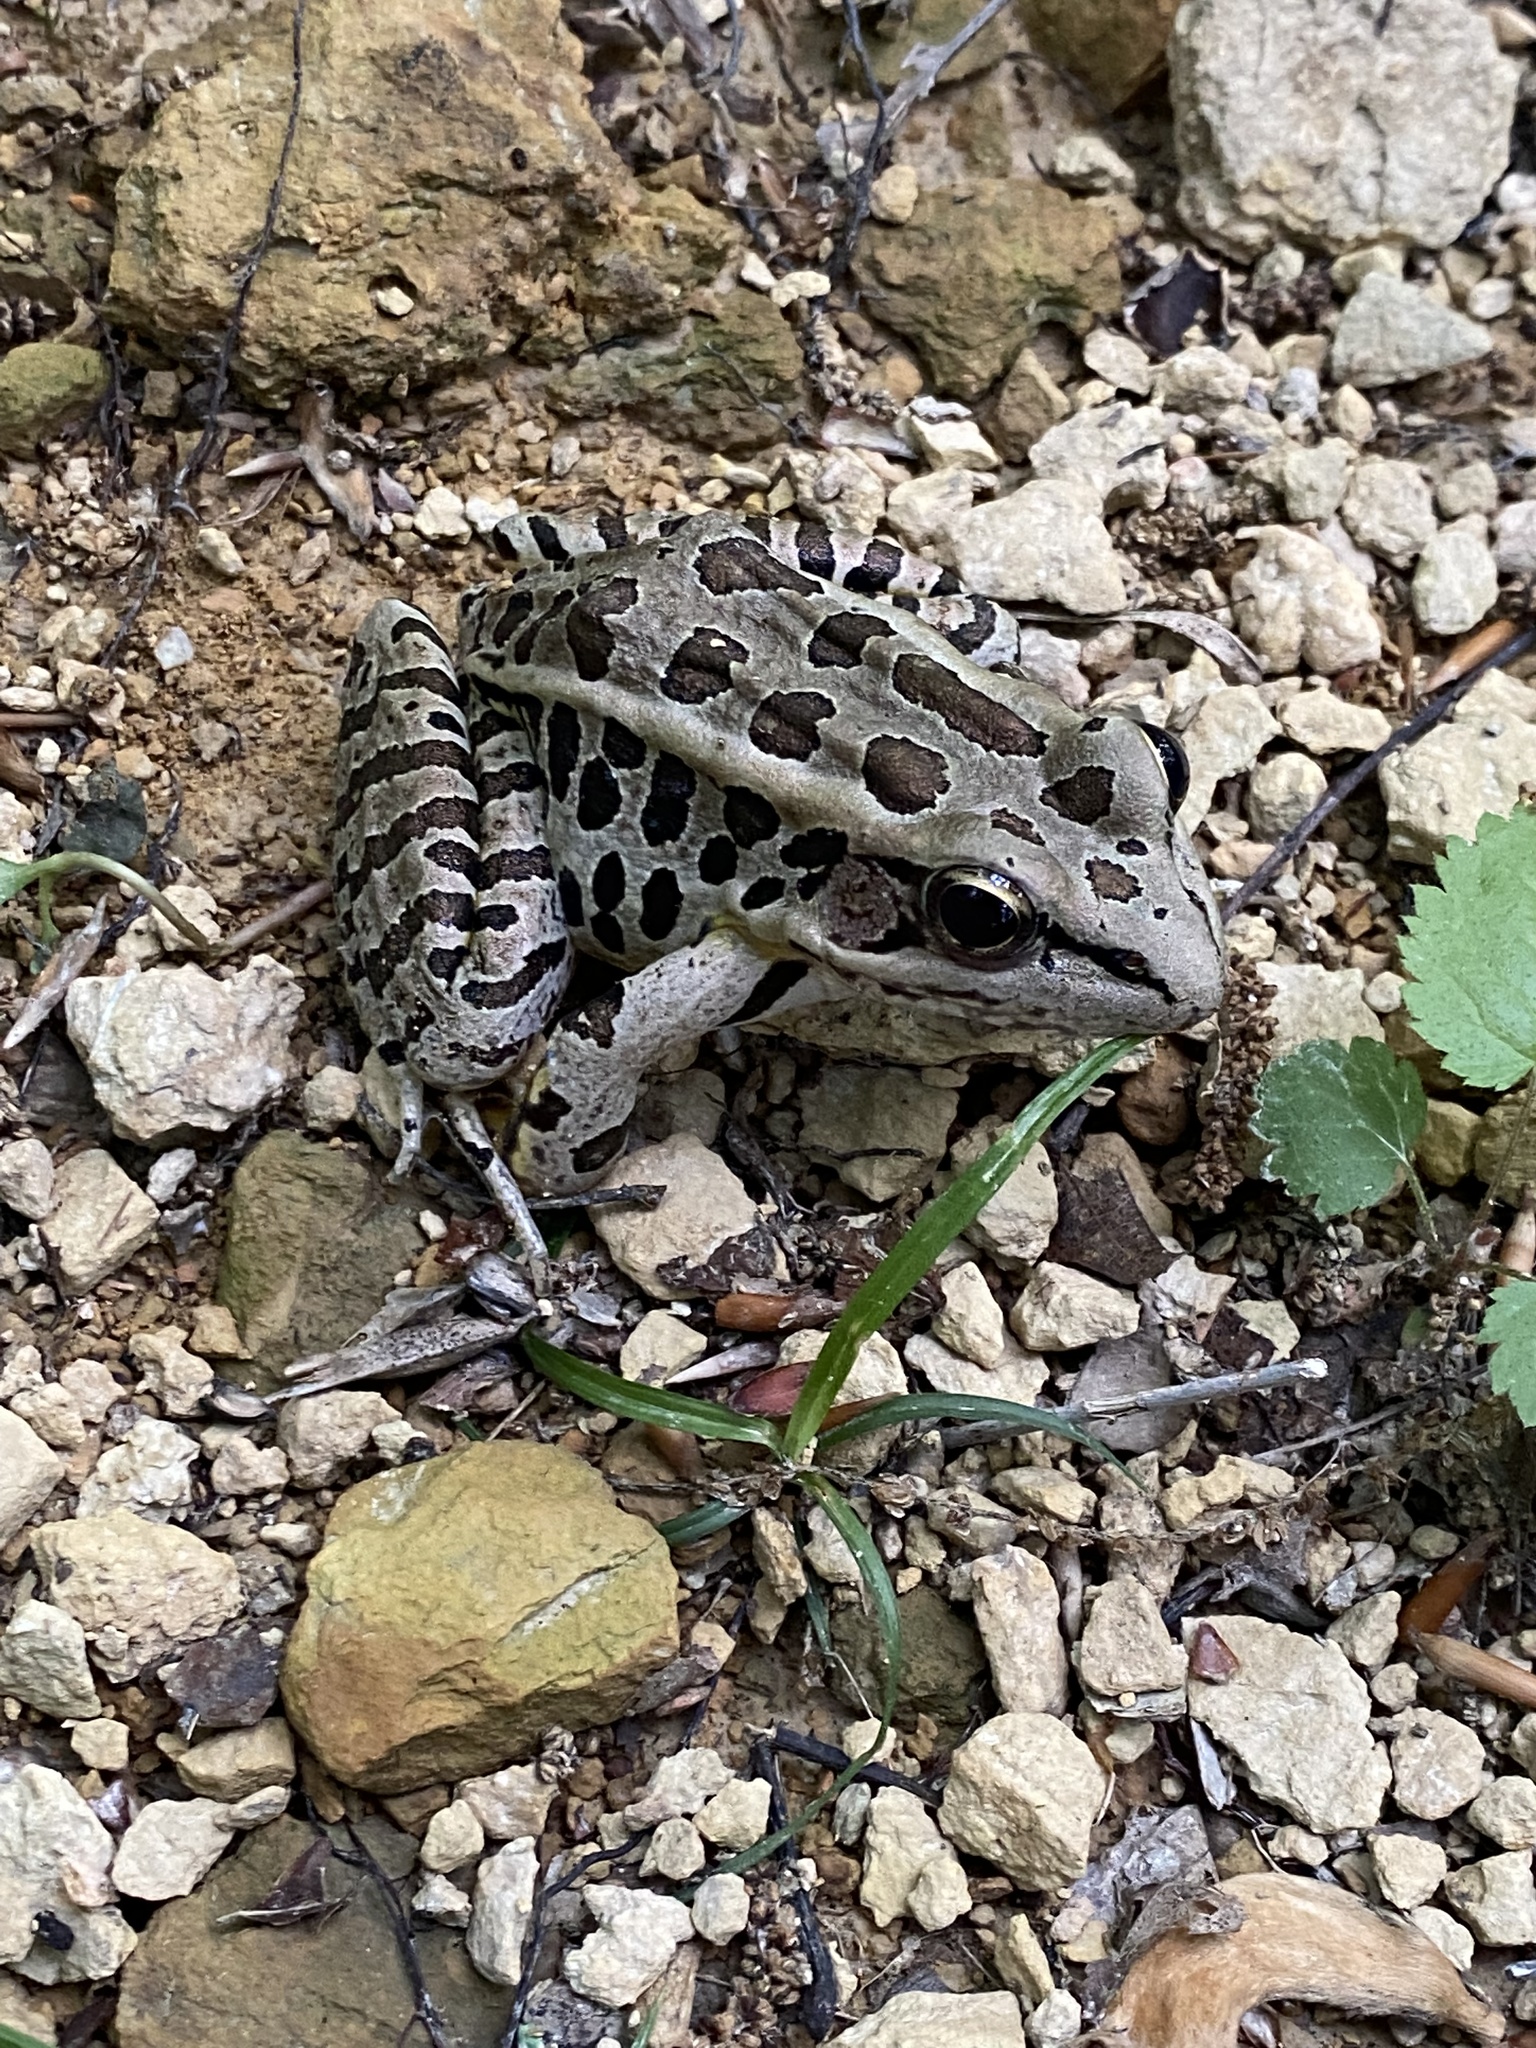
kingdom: Animalia
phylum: Chordata
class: Amphibia
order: Anura
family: Ranidae
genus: Lithobates
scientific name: Lithobates palustris
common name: Pickerel frog
